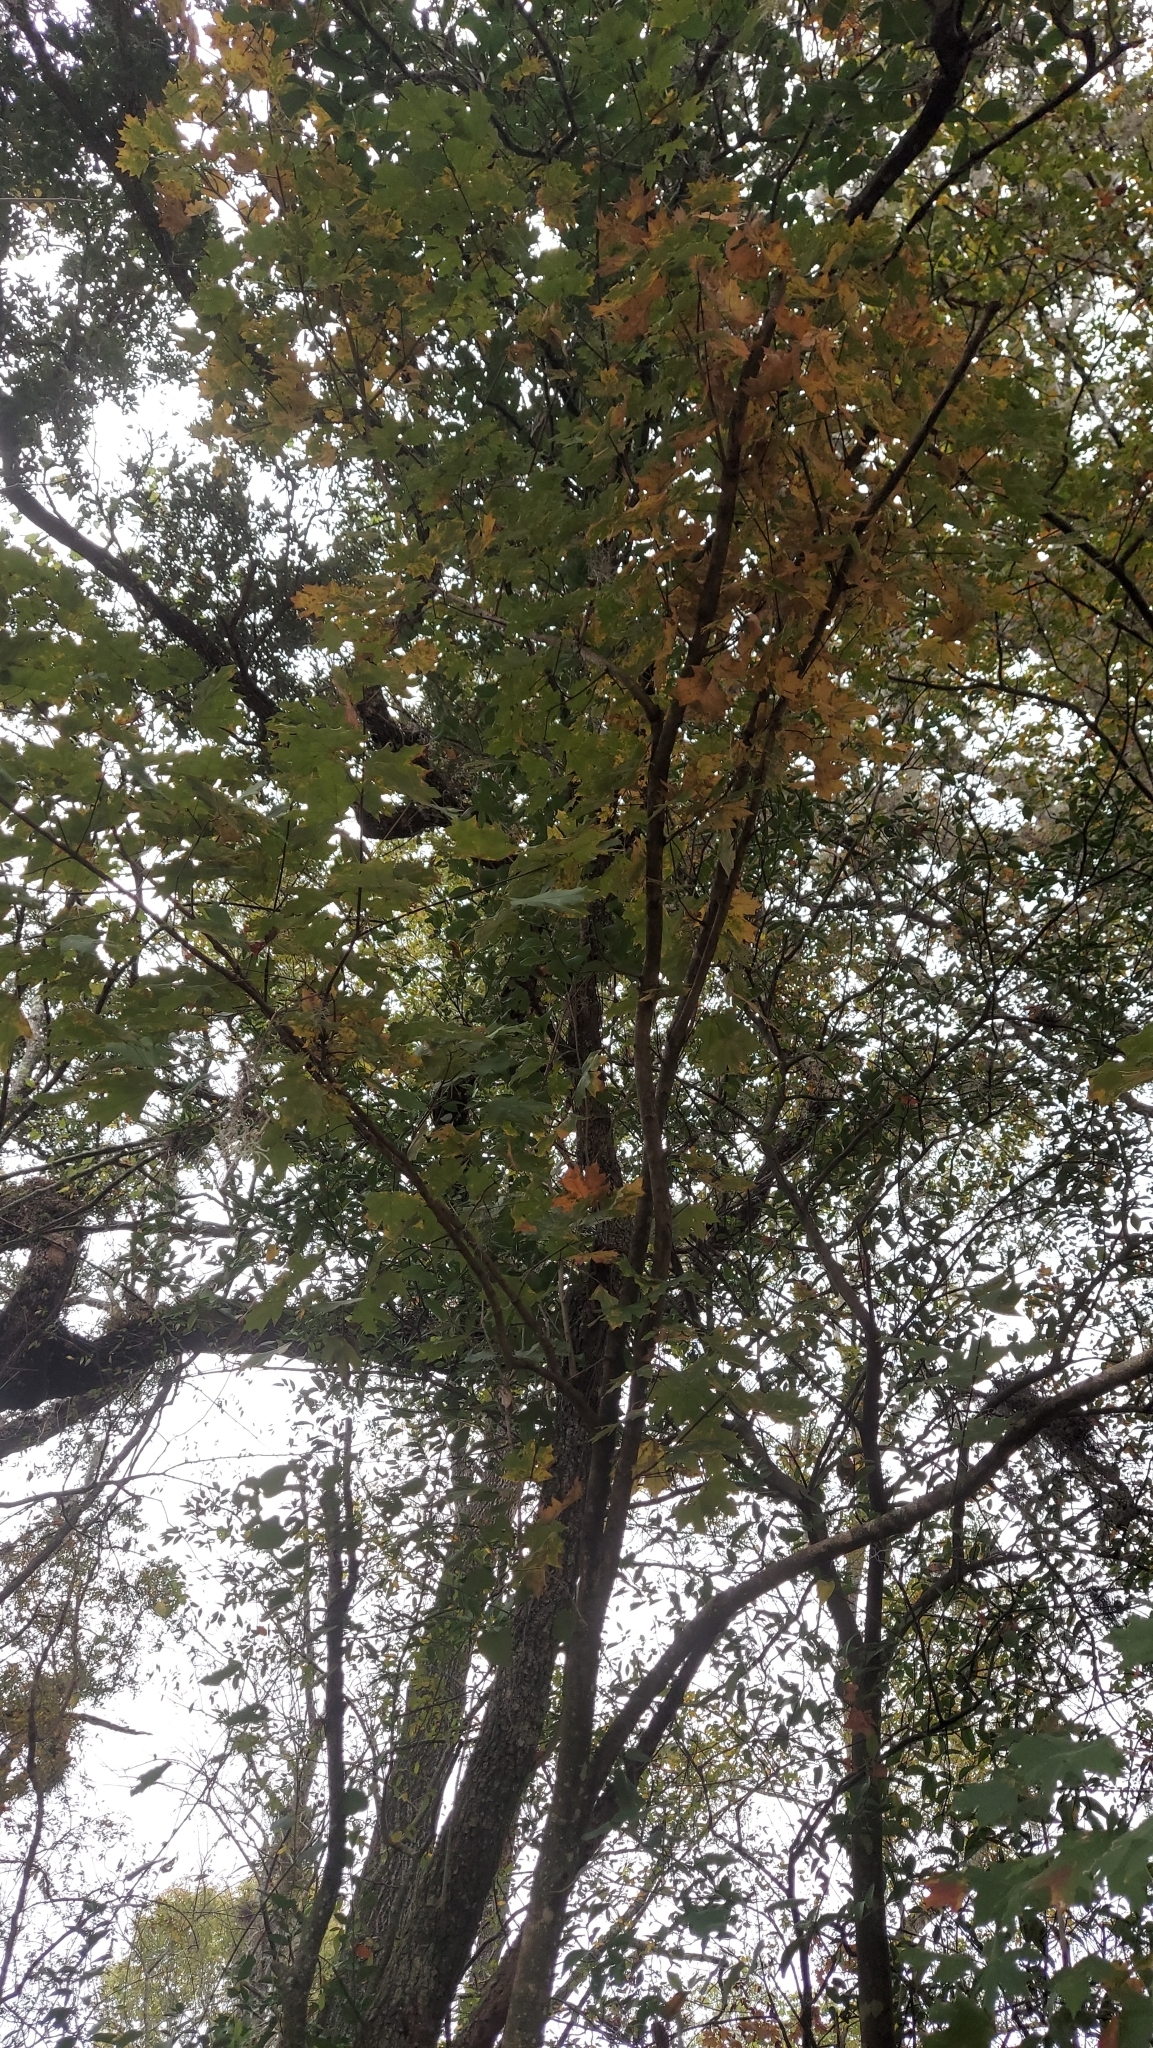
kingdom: Plantae
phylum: Tracheophyta
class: Magnoliopsida
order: Sapindales
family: Sapindaceae
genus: Acer
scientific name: Acer floridanum
